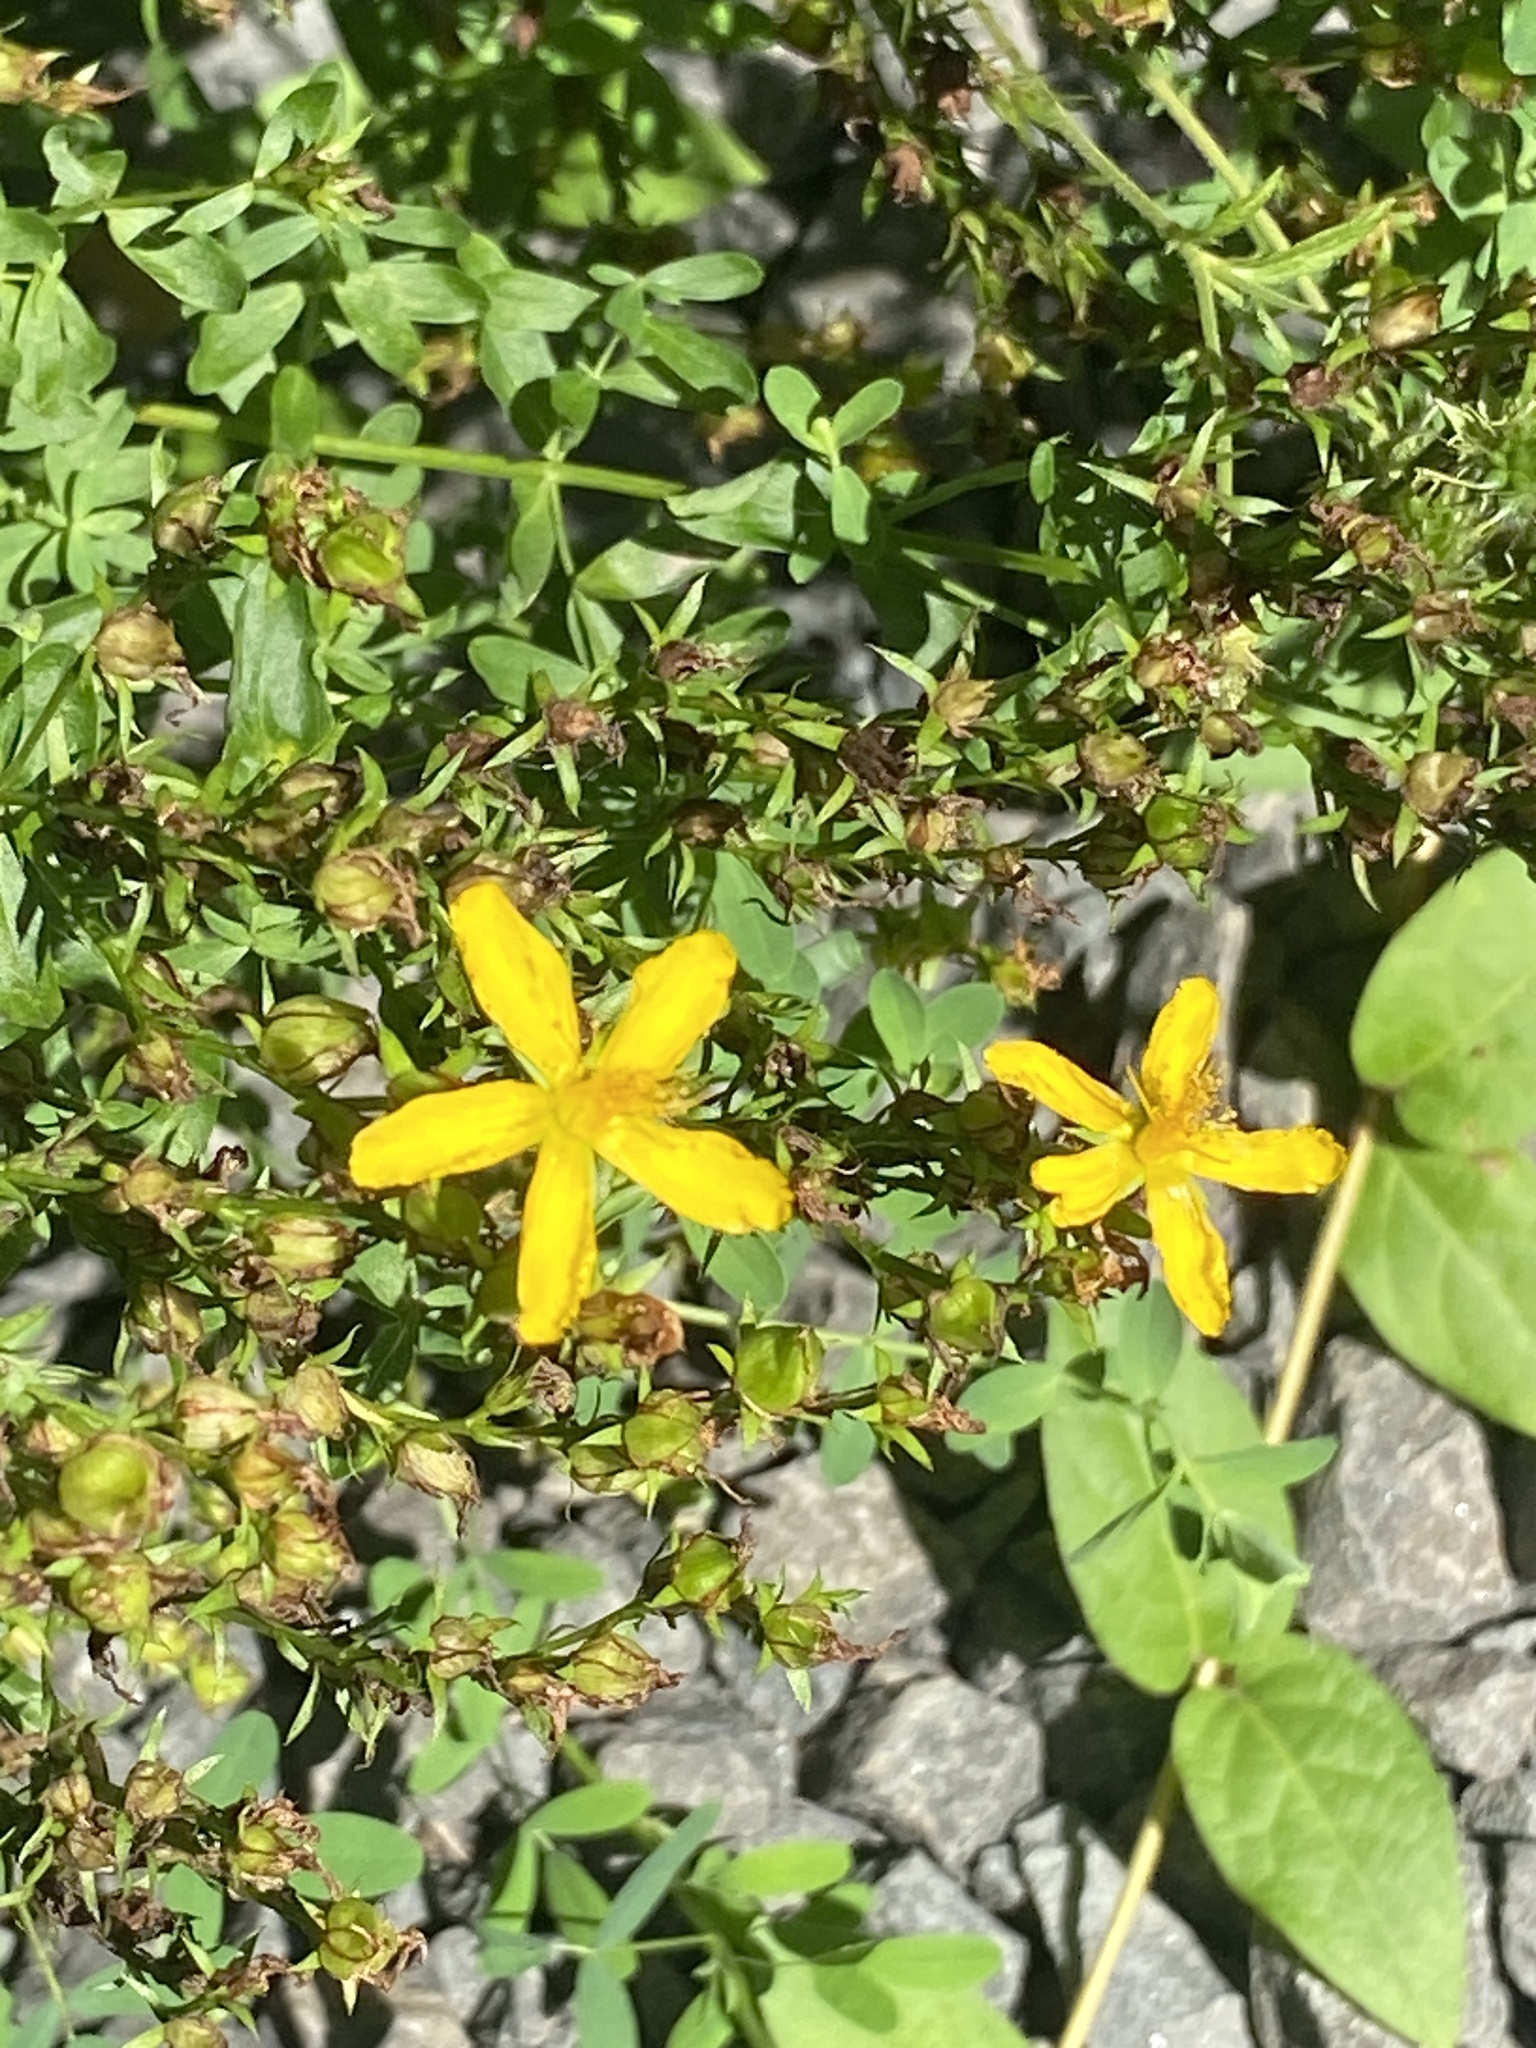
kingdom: Plantae
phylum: Tracheophyta
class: Magnoliopsida
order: Malpighiales
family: Hypericaceae
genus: Hypericum
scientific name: Hypericum perforatum
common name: Common st. johnswort
